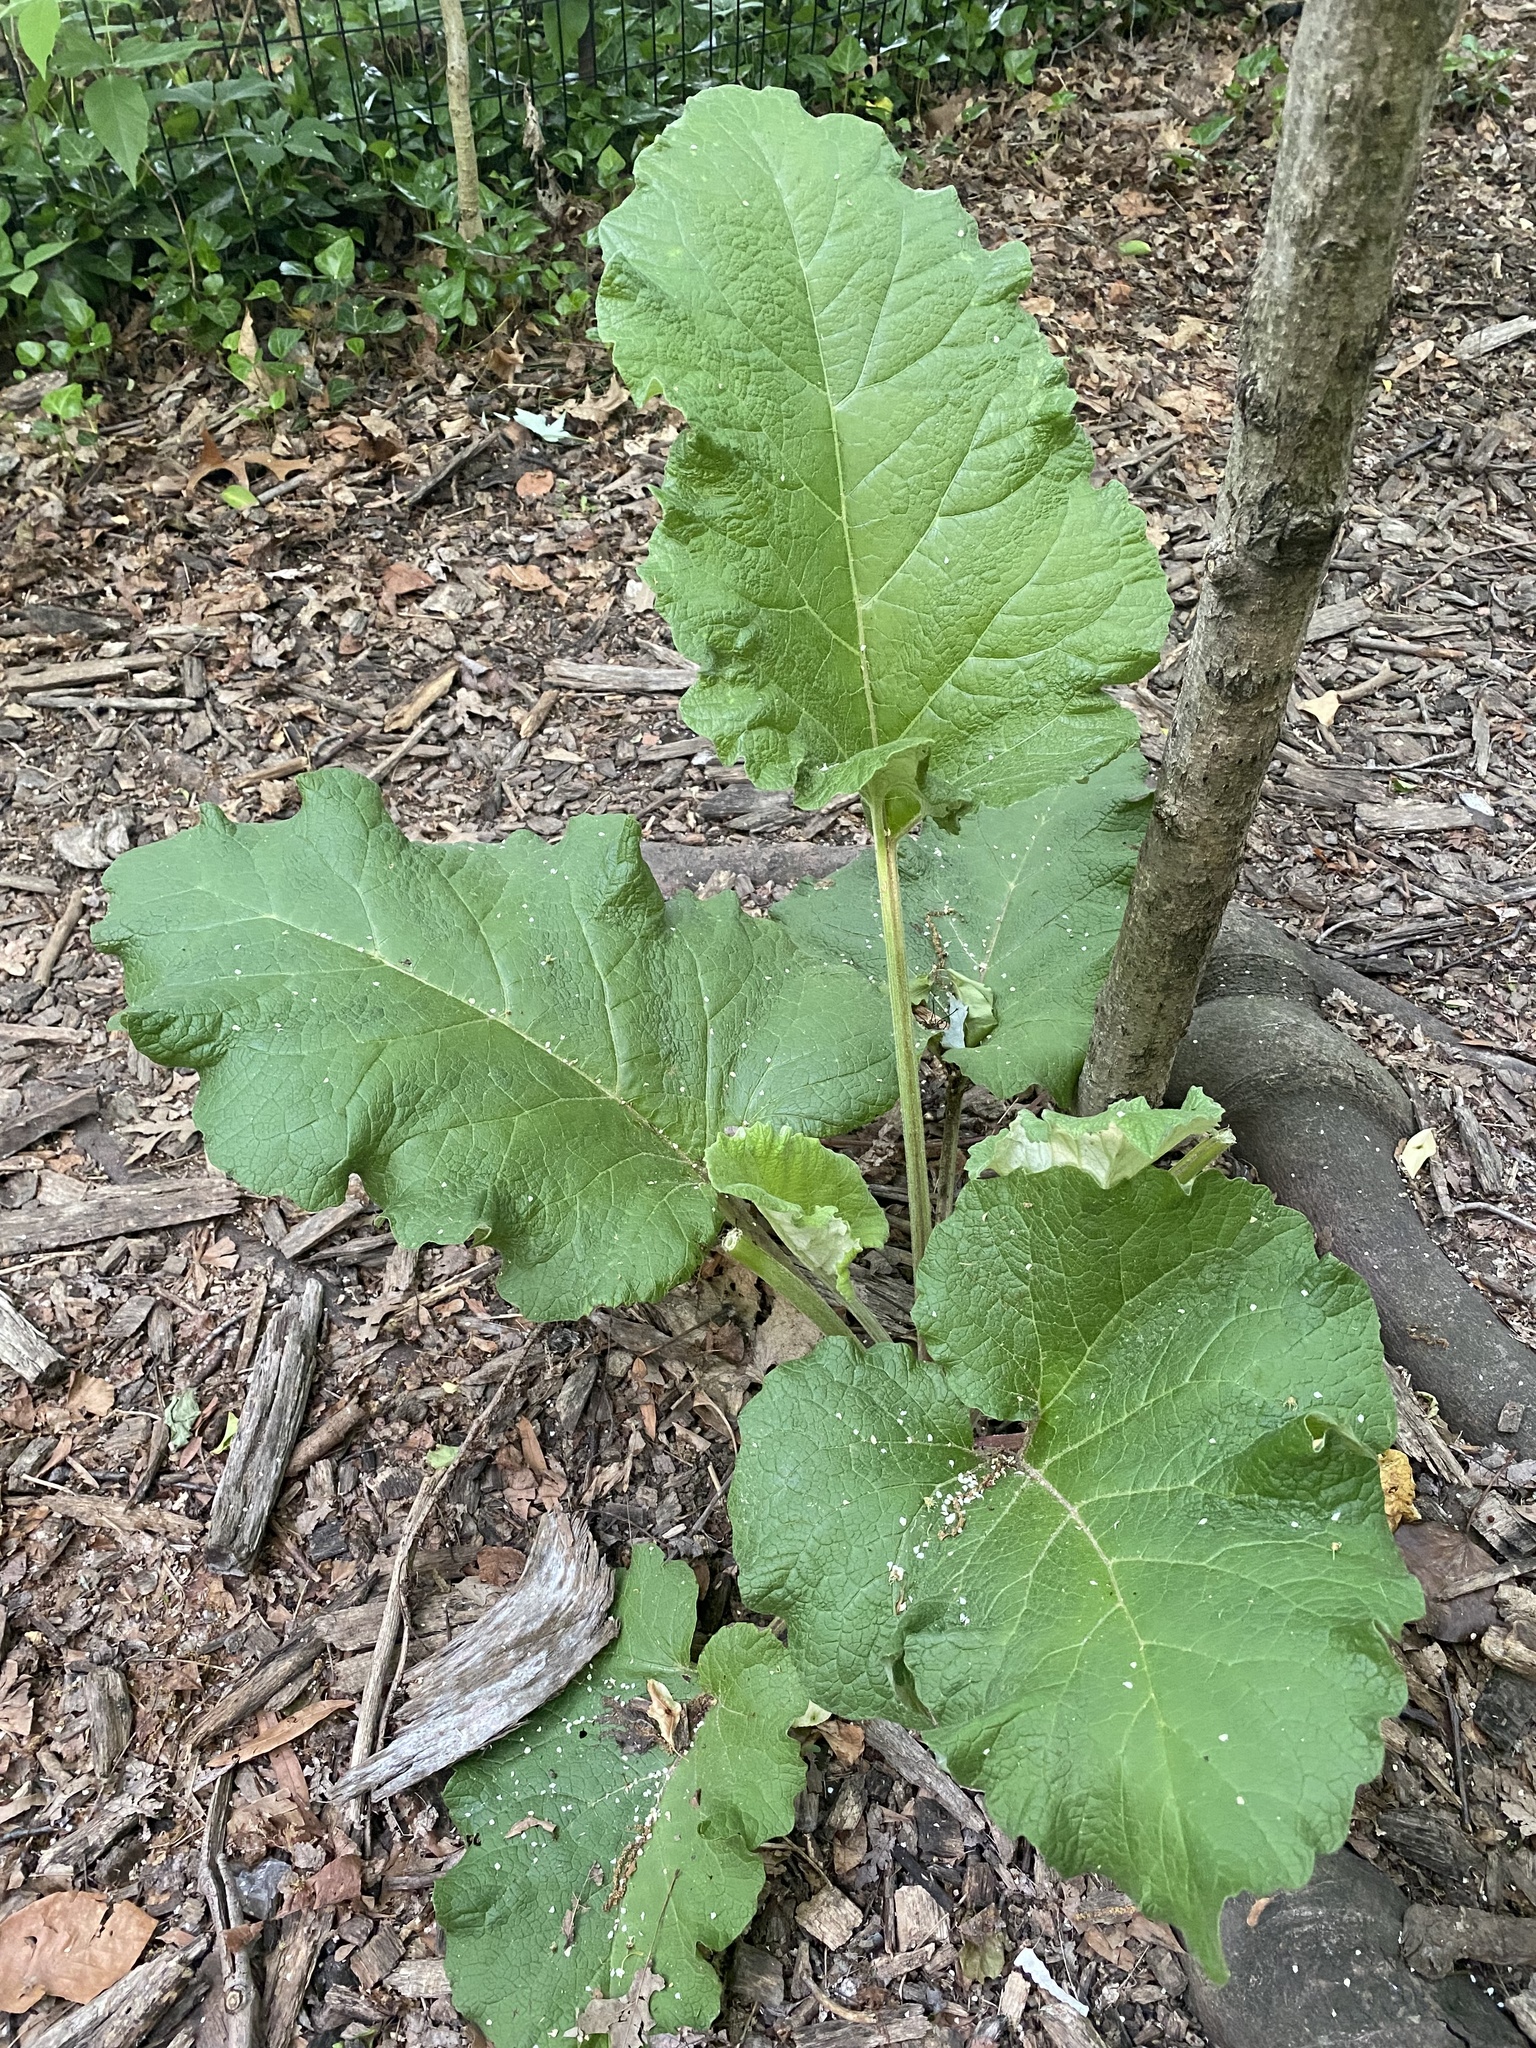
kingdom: Plantae
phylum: Tracheophyta
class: Magnoliopsida
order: Asterales
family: Asteraceae
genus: Arctium
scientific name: Arctium
